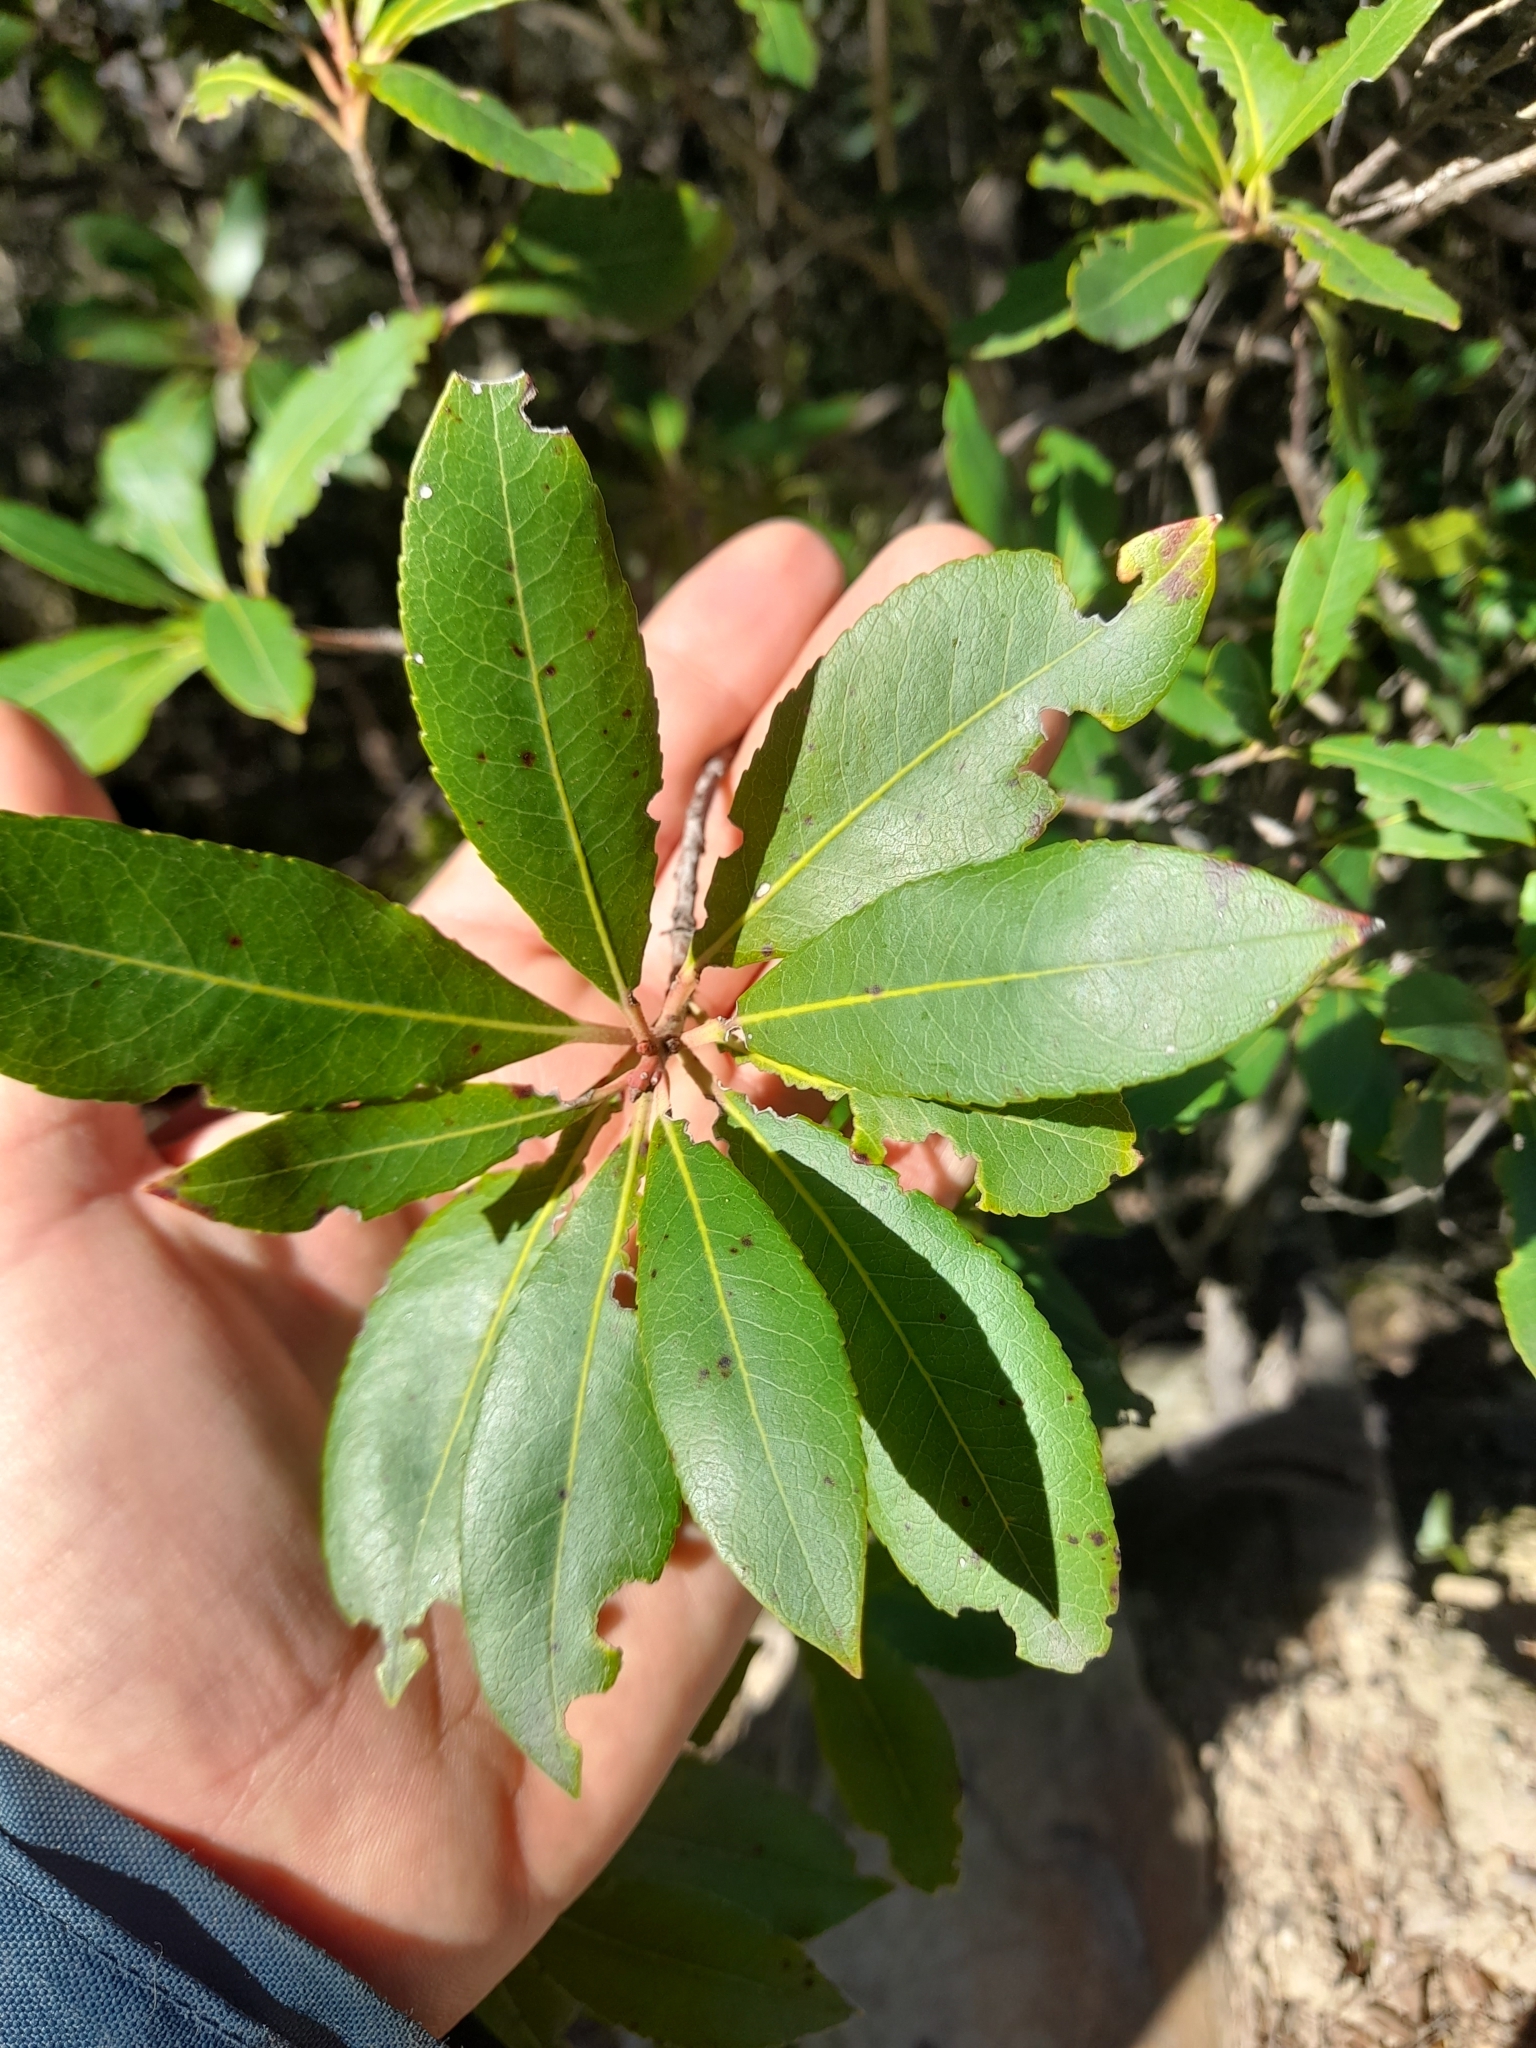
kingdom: Plantae
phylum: Tracheophyta
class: Magnoliopsida
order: Ericales
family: Ericaceae
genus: Arbutus
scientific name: Arbutus unedo
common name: Strawberry-tree
